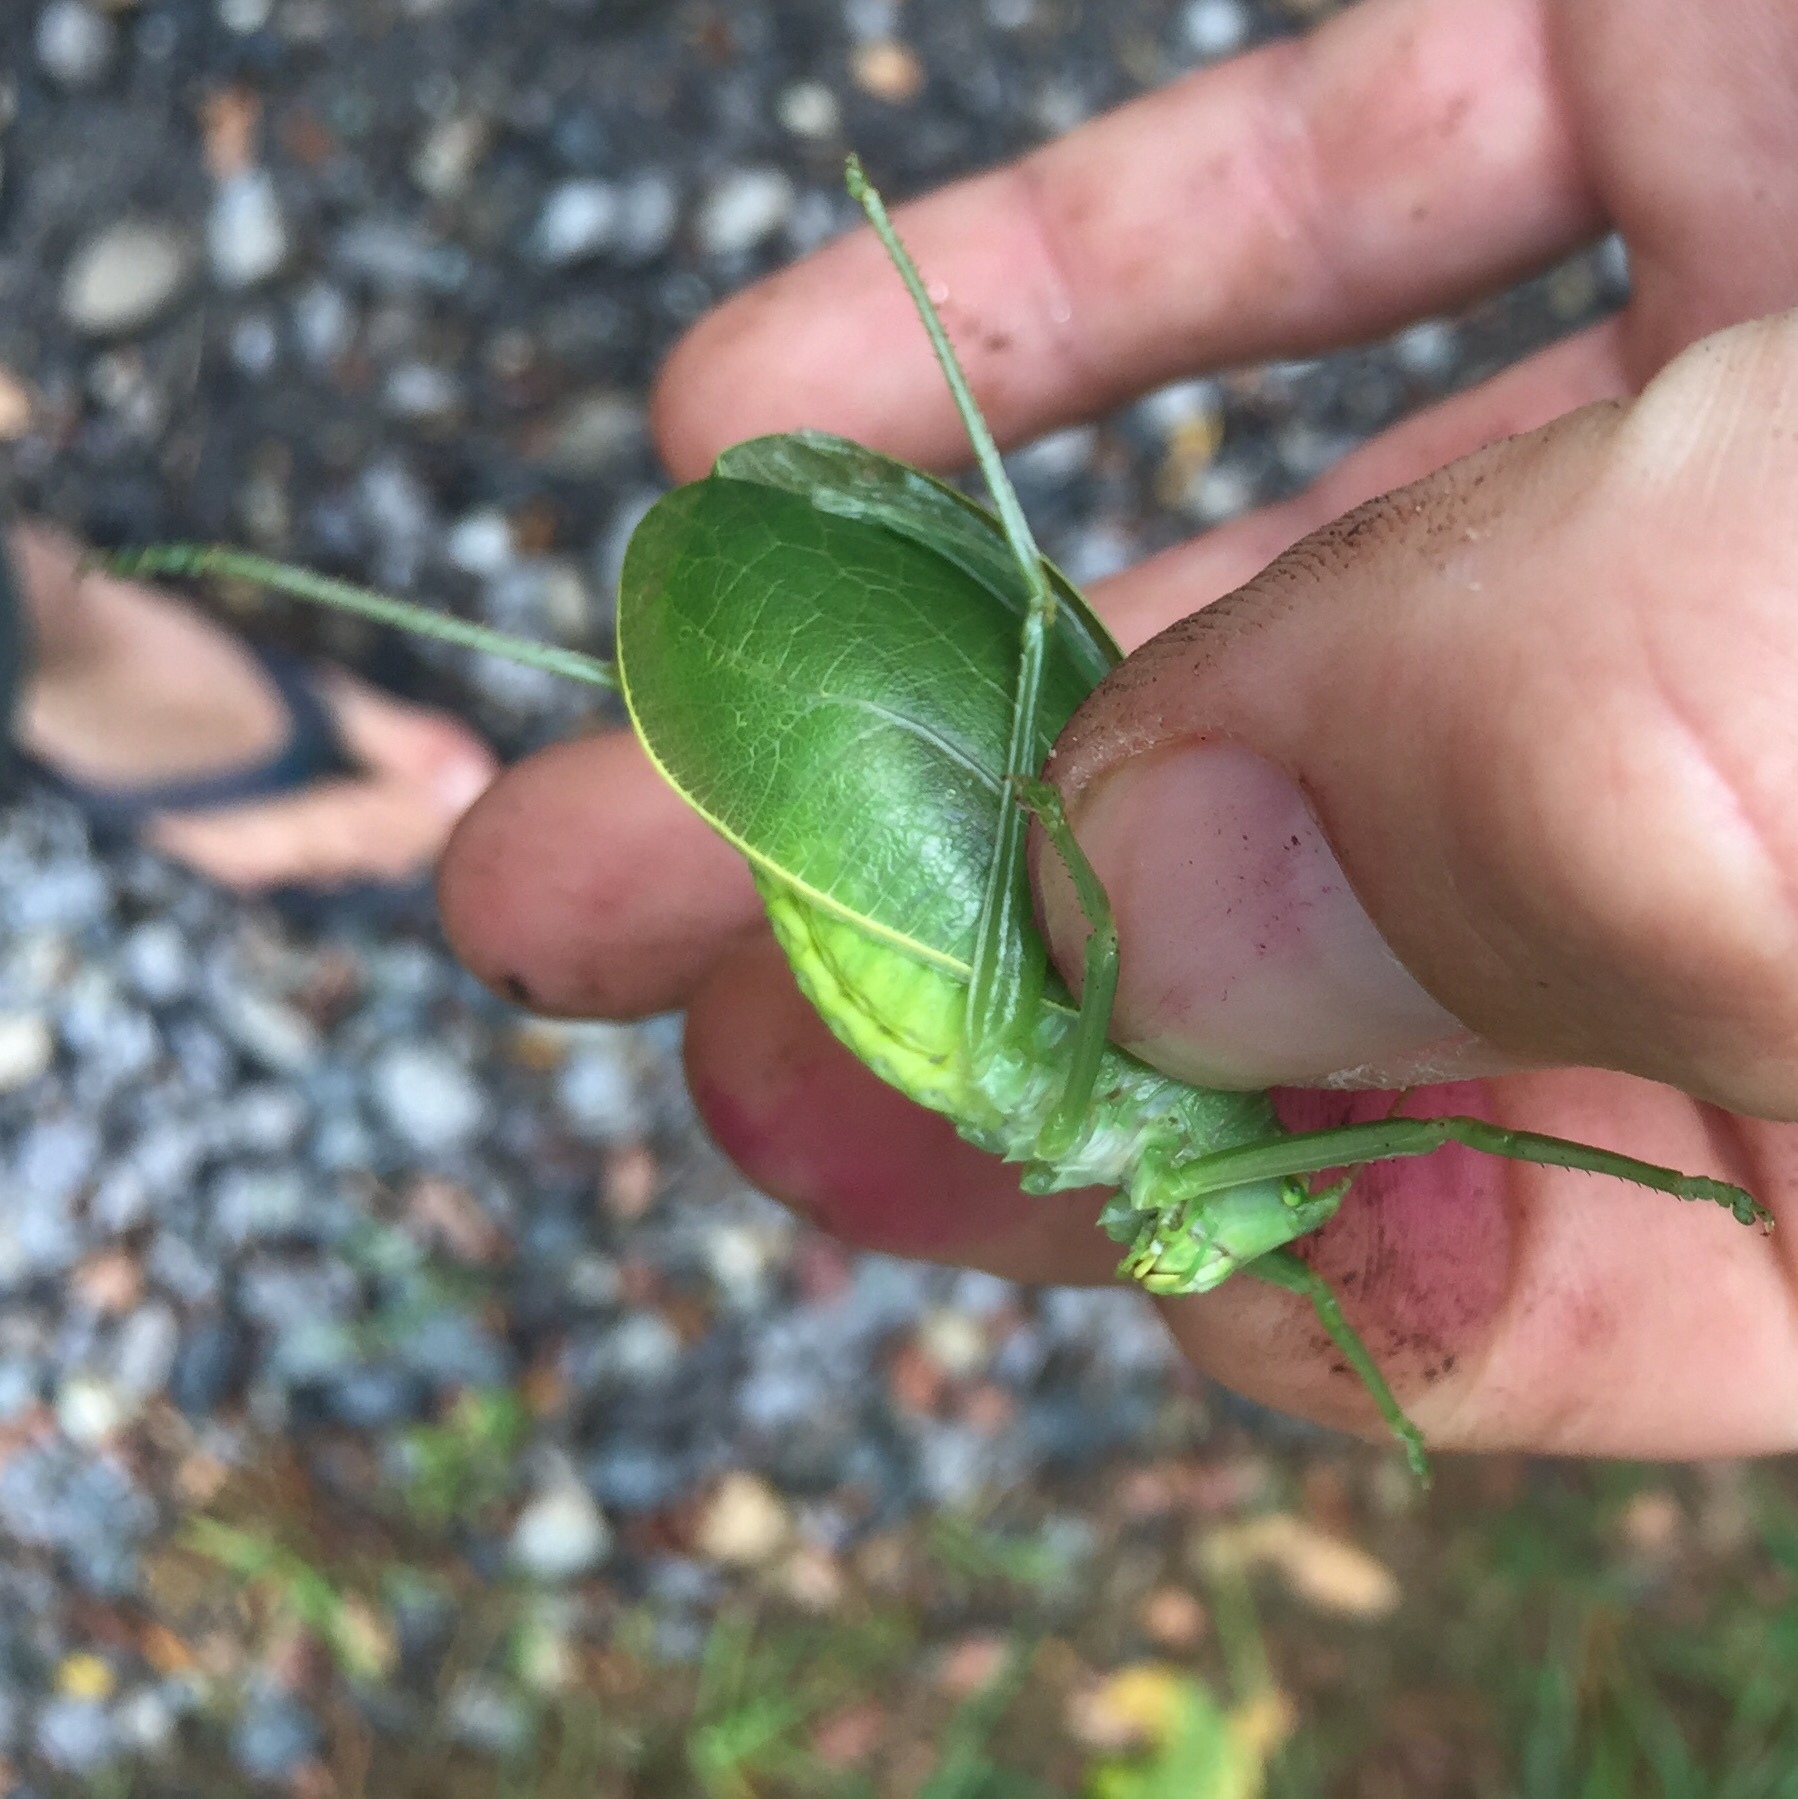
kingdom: Animalia
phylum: Arthropoda
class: Insecta
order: Orthoptera
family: Tettigoniidae
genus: Pterophylla
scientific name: Pterophylla camellifolia
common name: Common true katydid
